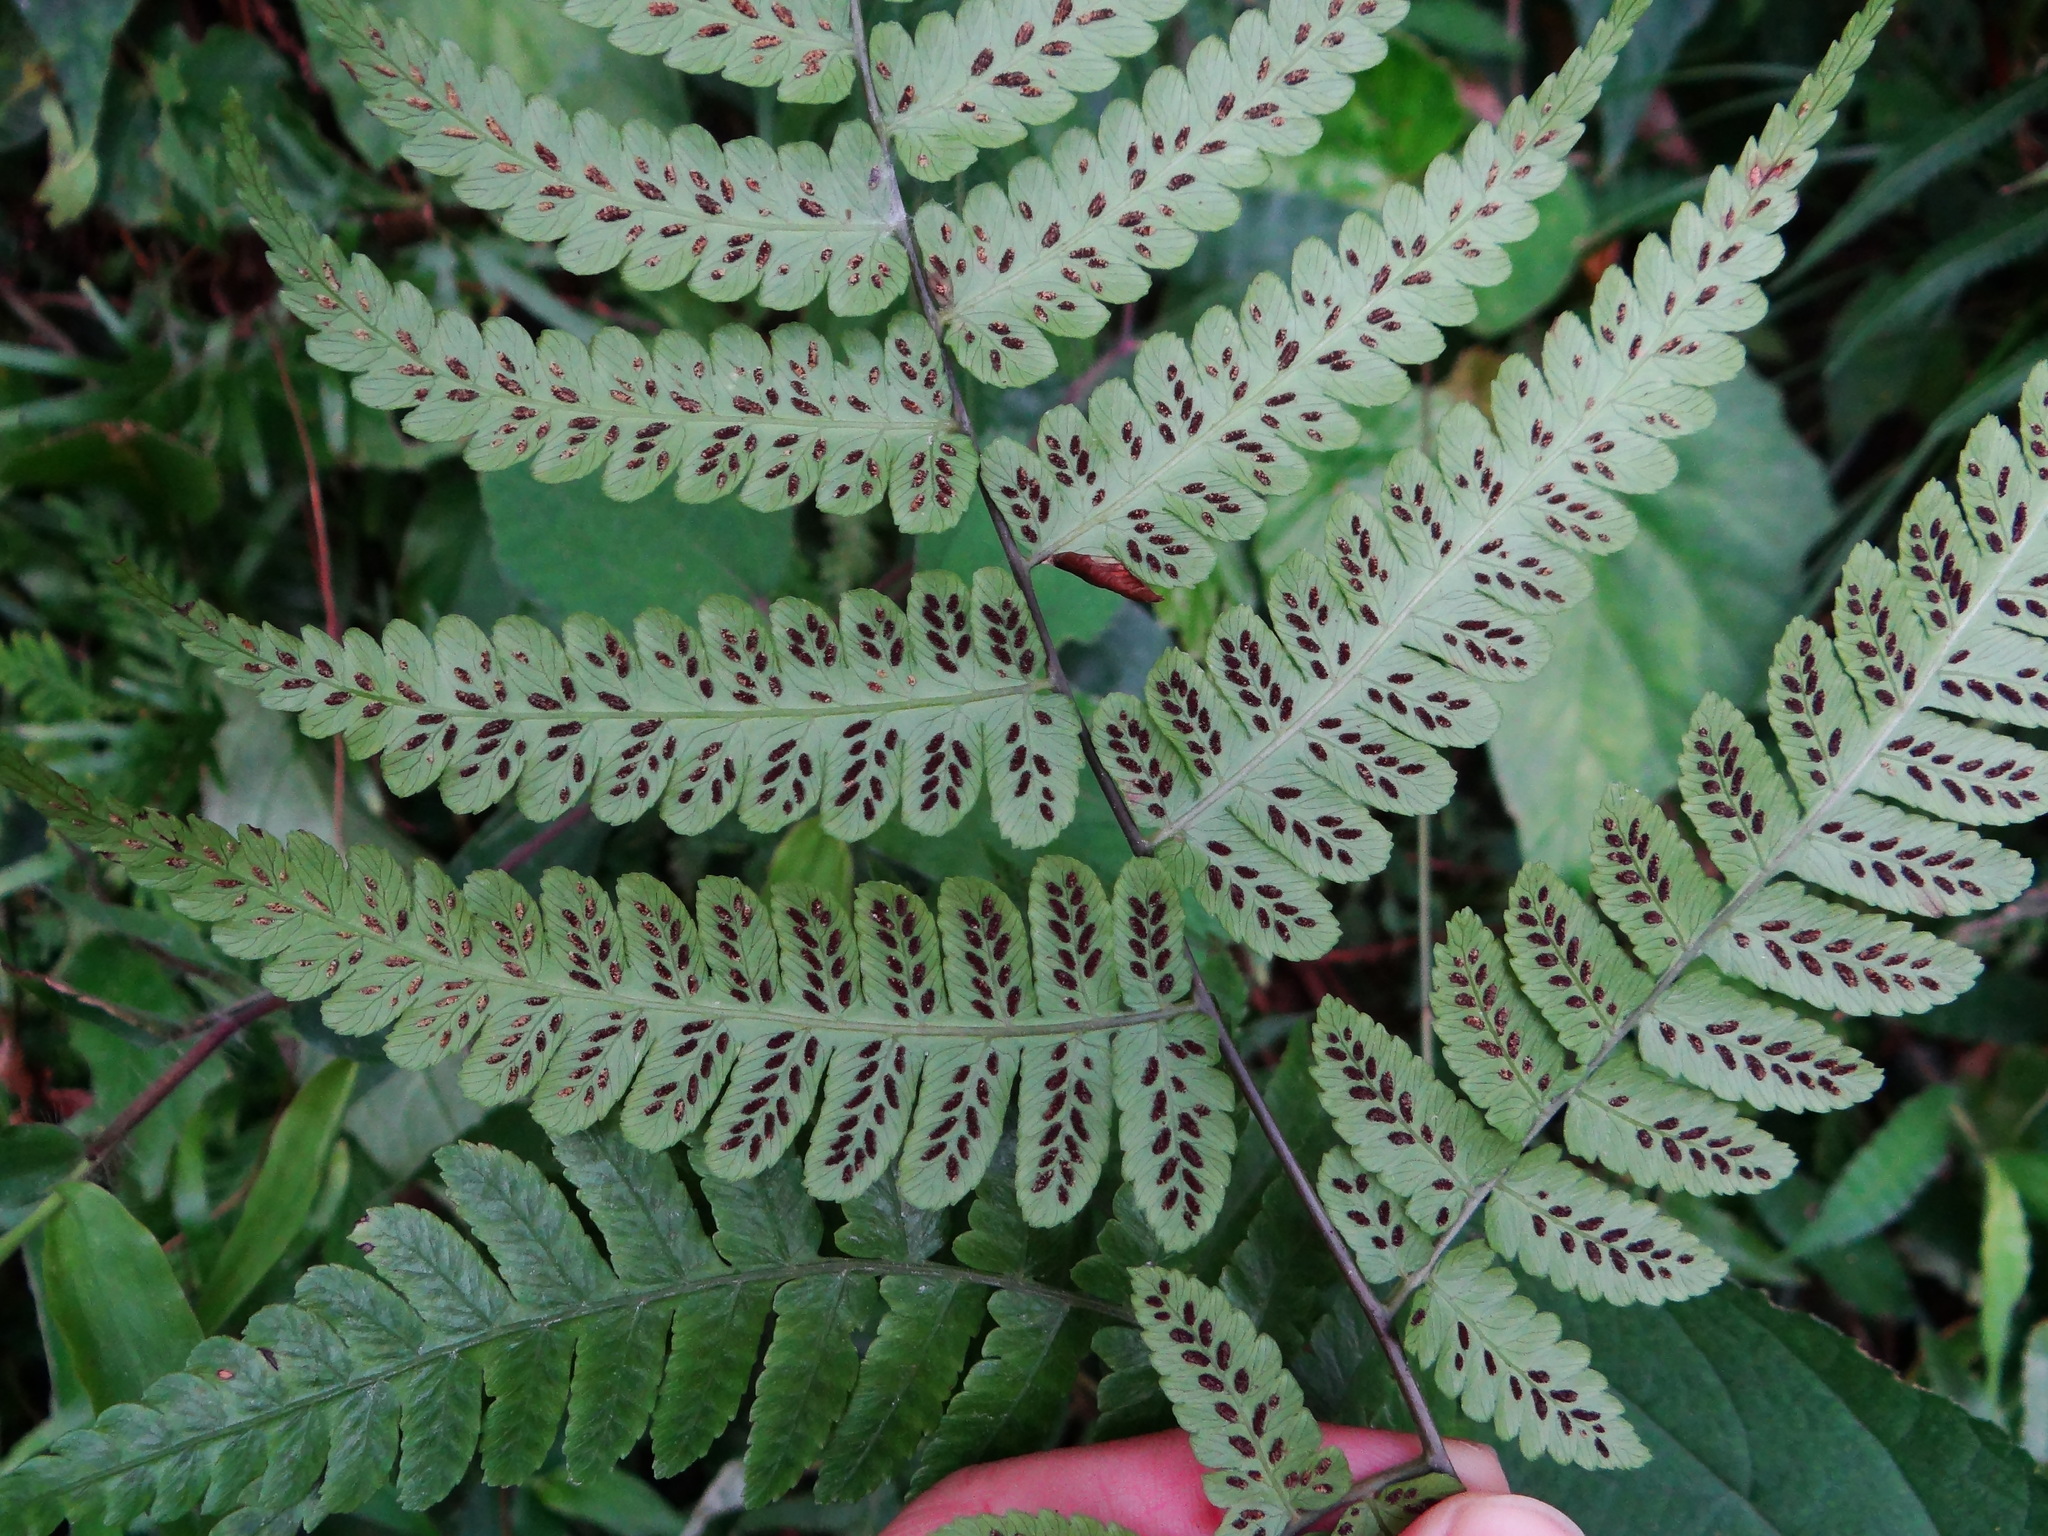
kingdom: Plantae
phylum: Tracheophyta
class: Polypodiopsida
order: Polypodiales
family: Athyriaceae
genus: Diplazium
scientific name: Diplazium okinawaense
